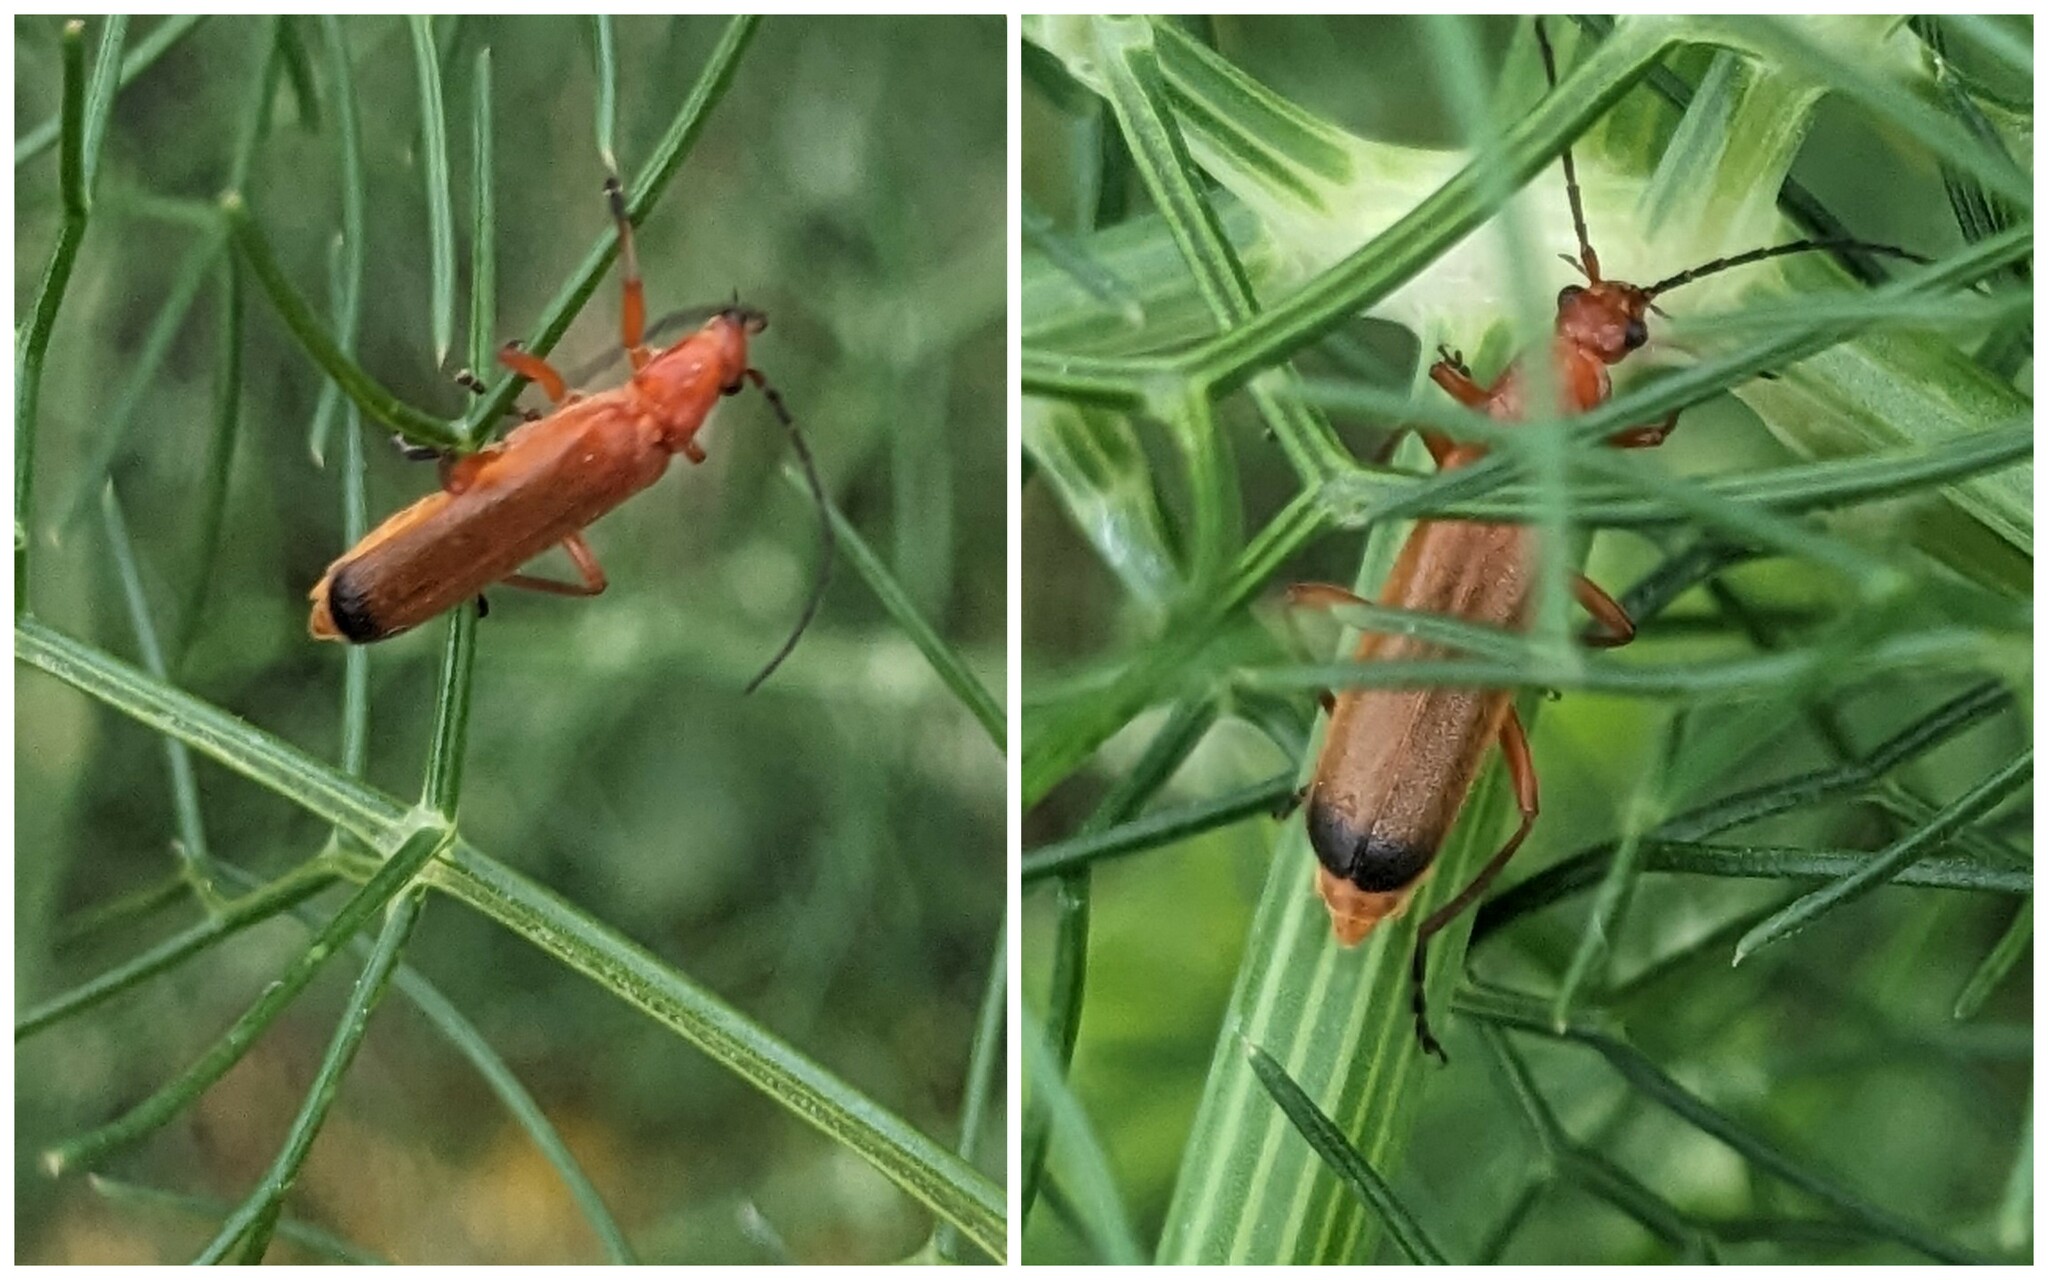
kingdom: Animalia
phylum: Arthropoda
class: Insecta
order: Coleoptera
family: Cantharidae
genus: Rhagonycha
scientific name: Rhagonycha fulva
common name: Common red soldier beetle
